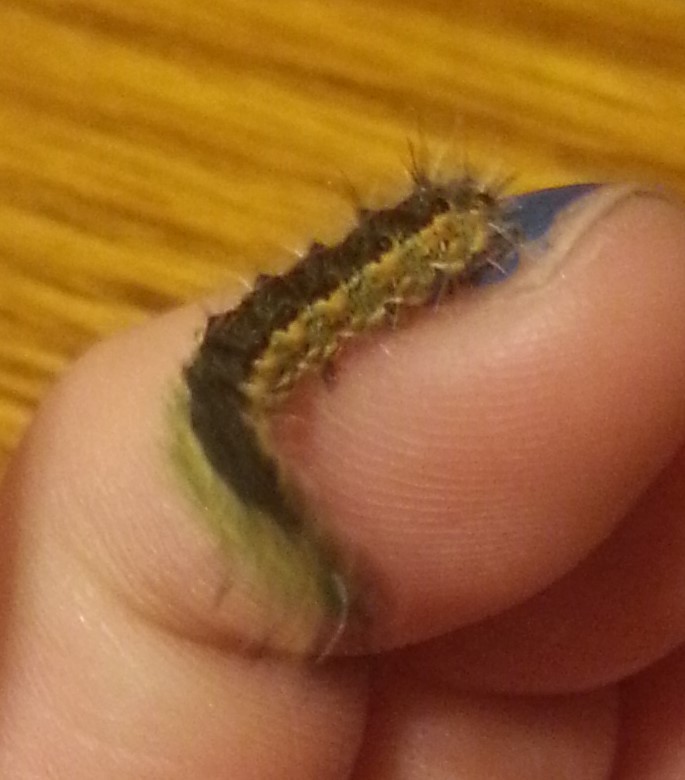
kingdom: Animalia
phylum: Arthropoda
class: Insecta
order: Lepidoptera
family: Erebidae
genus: Hyphantria
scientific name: Hyphantria cunea
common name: American white moth
